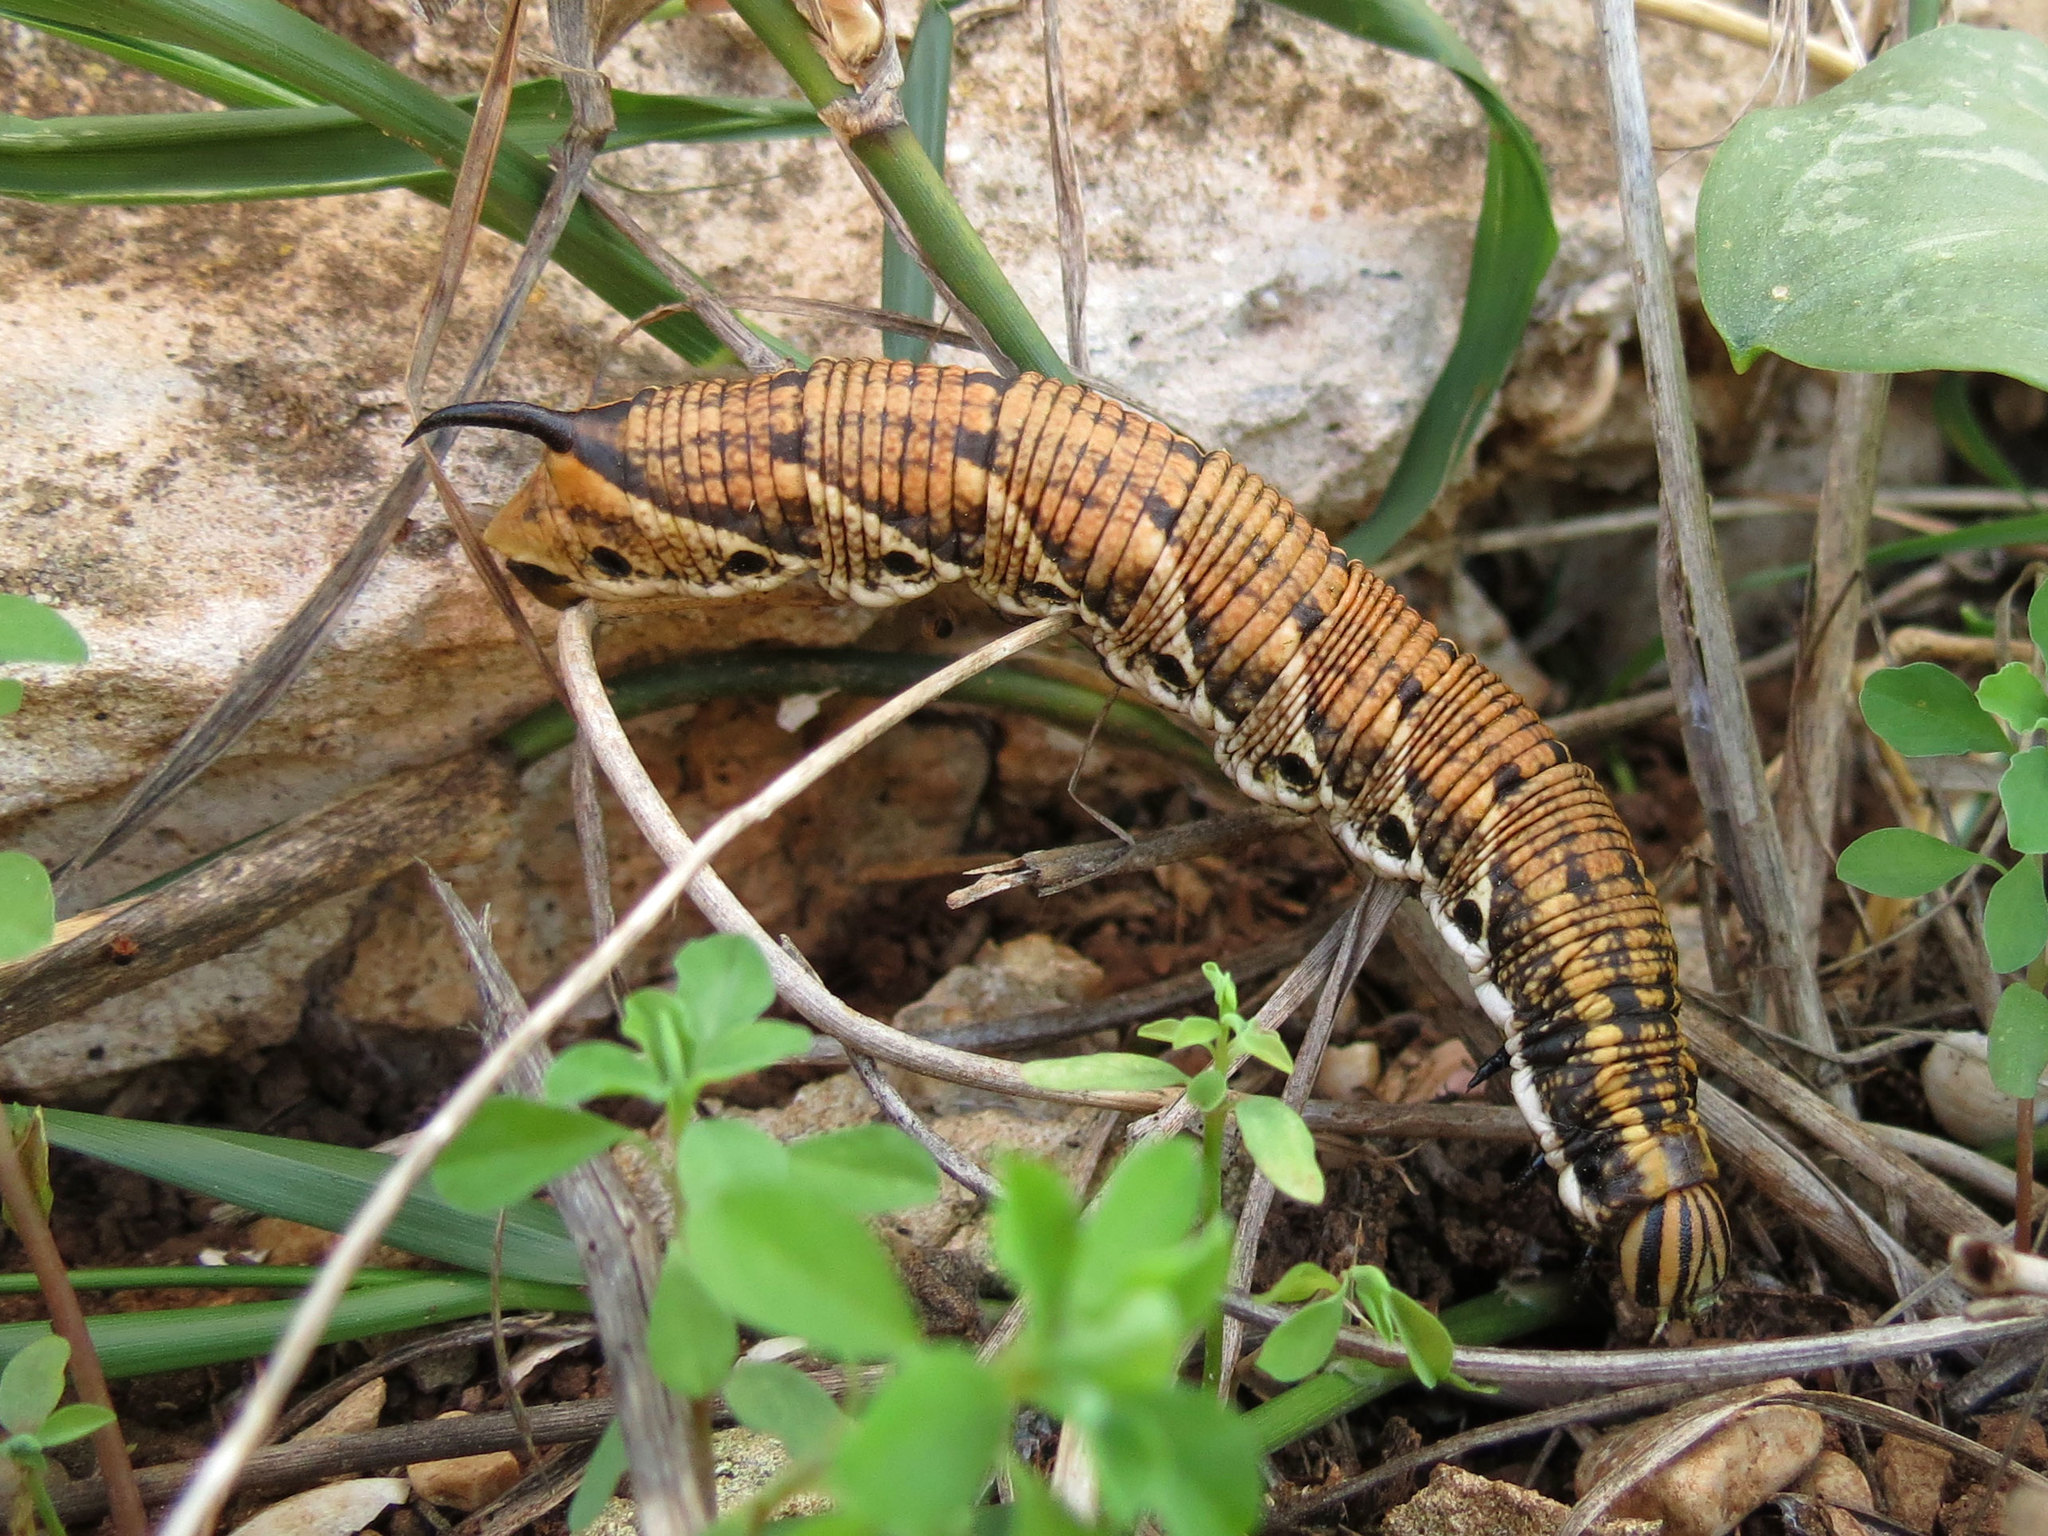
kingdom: Animalia
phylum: Arthropoda
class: Insecta
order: Lepidoptera
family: Sphingidae
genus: Agrius
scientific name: Agrius convolvuli
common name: Convolvulus hawkmoth
